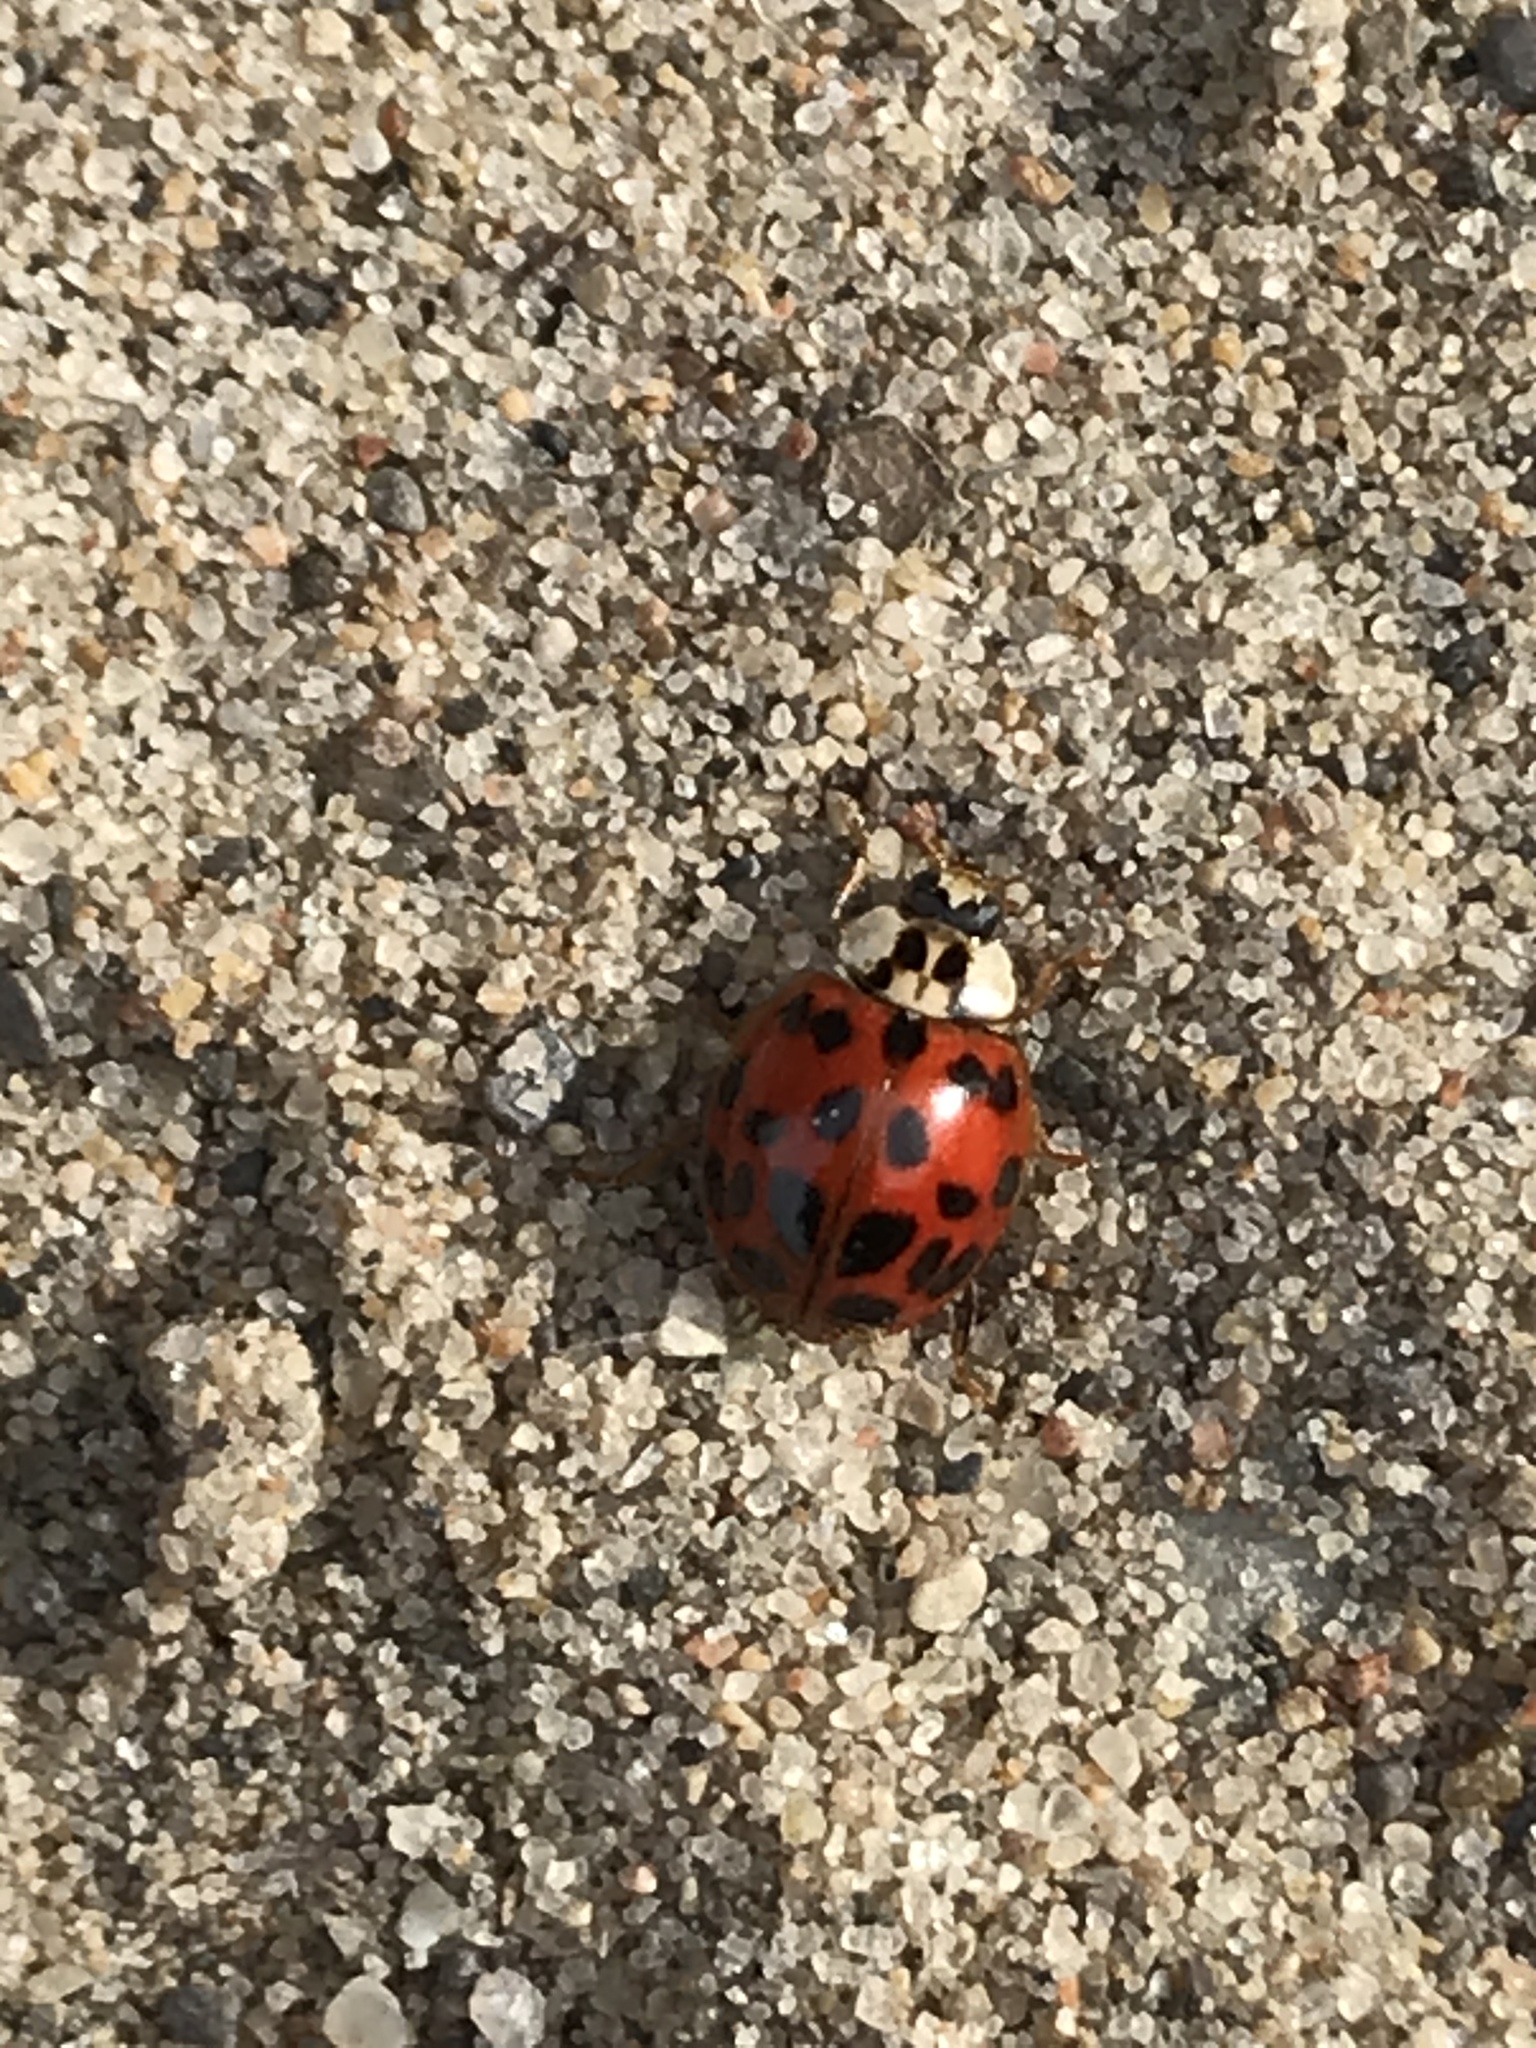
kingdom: Animalia
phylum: Arthropoda
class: Insecta
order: Coleoptera
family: Coccinellidae
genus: Harmonia
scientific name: Harmonia axyridis
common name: Harlequin ladybird
